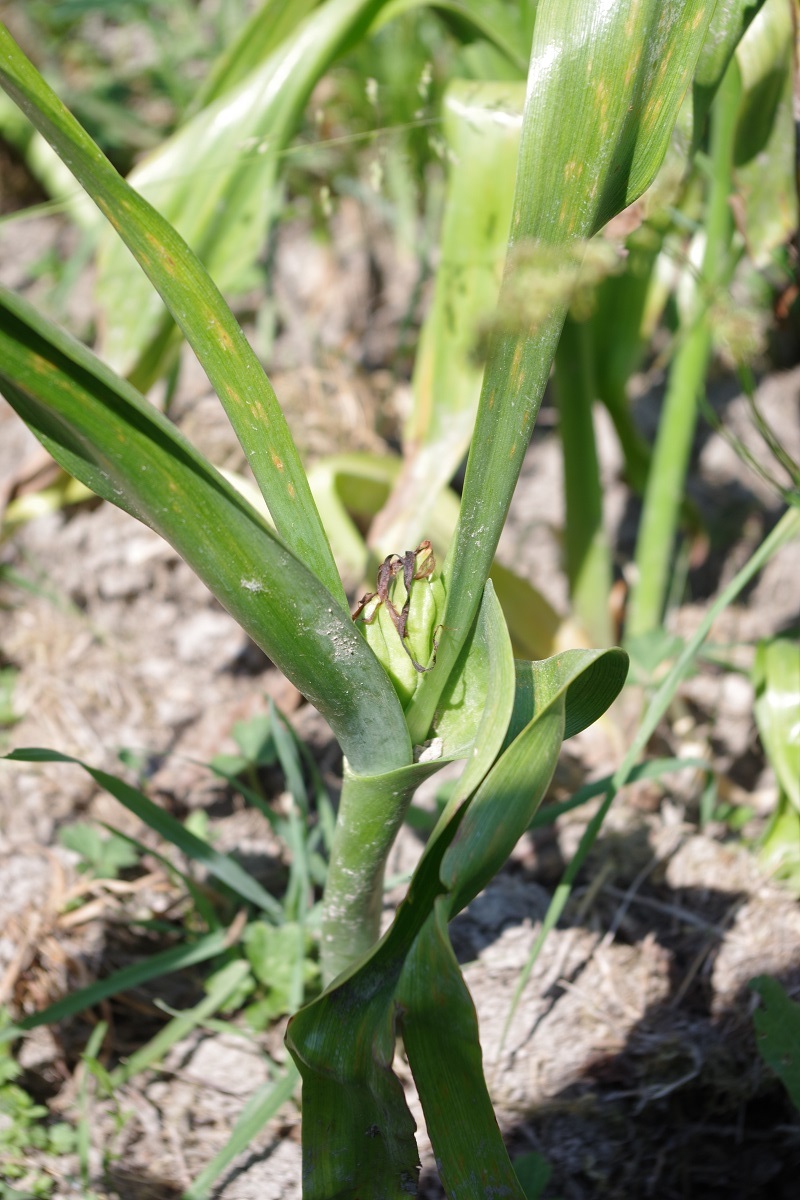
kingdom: Plantae
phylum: Tracheophyta
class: Liliopsida
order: Liliales
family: Colchicaceae
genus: Colchicum
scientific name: Colchicum autumnale
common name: Autumn crocus
